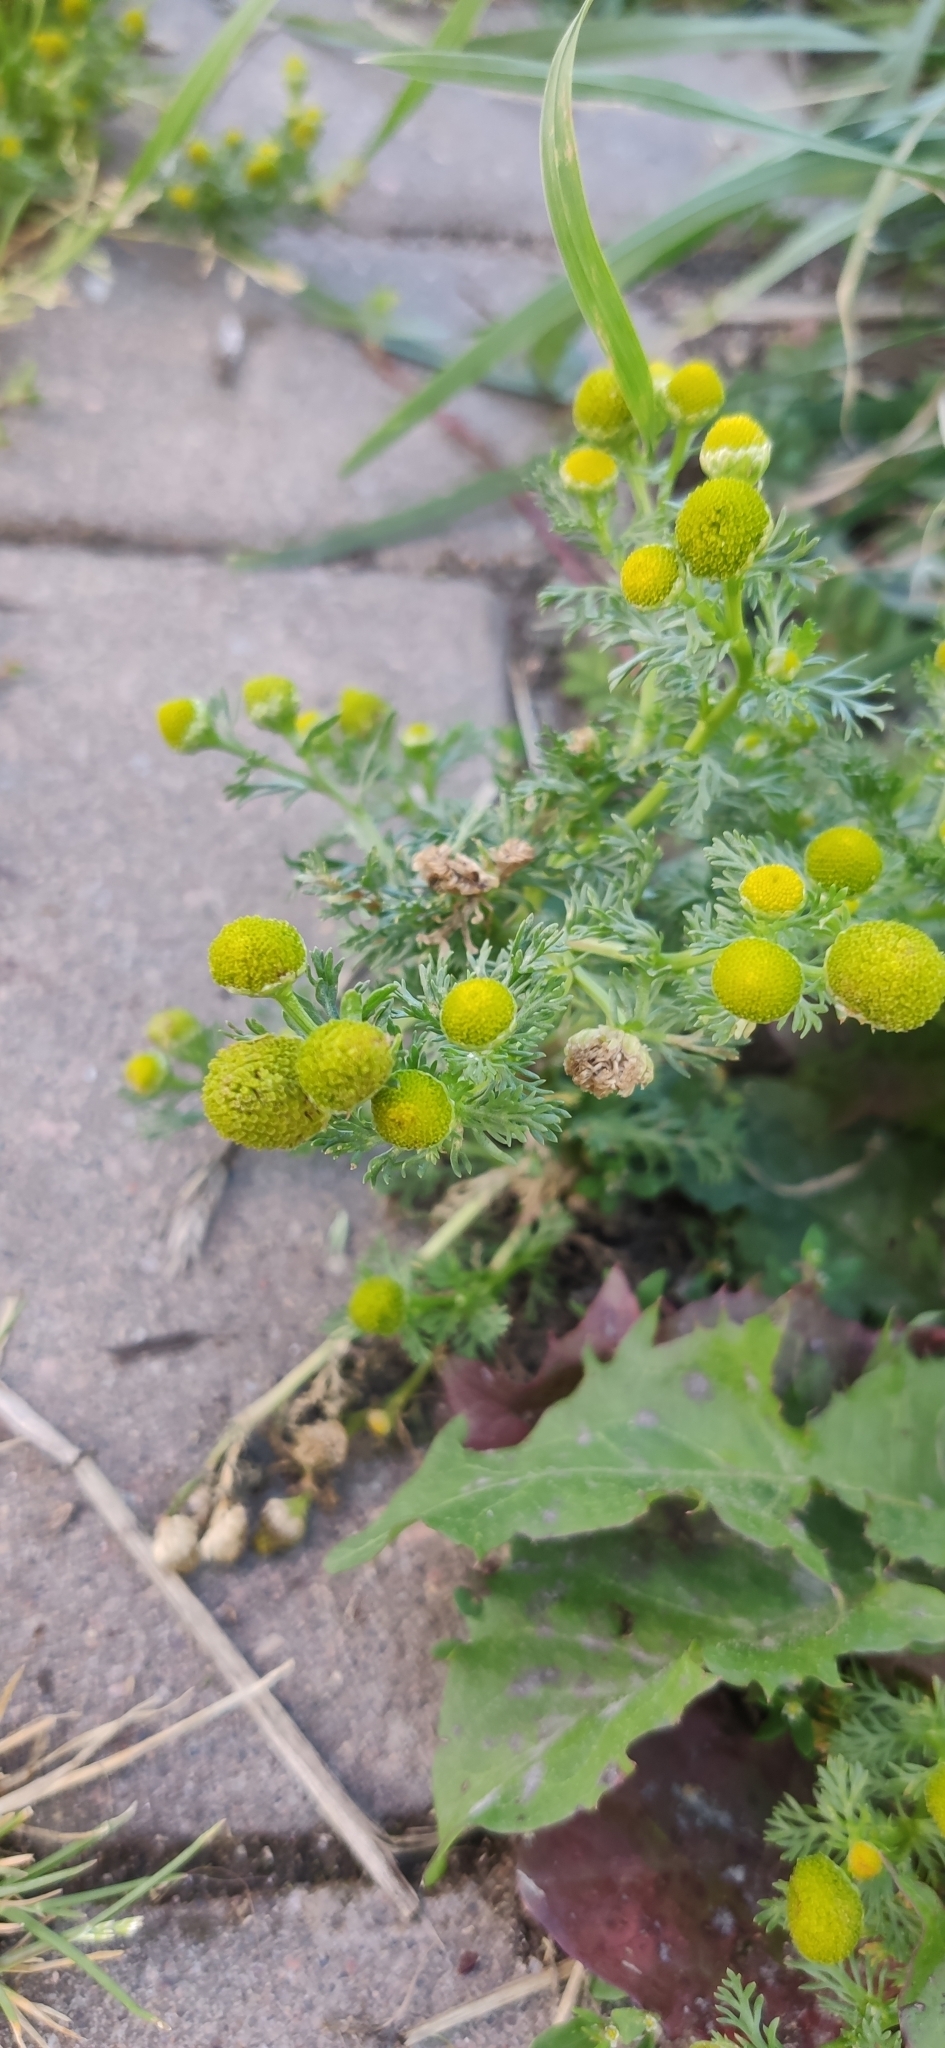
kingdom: Plantae
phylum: Tracheophyta
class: Magnoliopsida
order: Asterales
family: Asteraceae
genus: Matricaria
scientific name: Matricaria discoidea
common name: Disc mayweed
